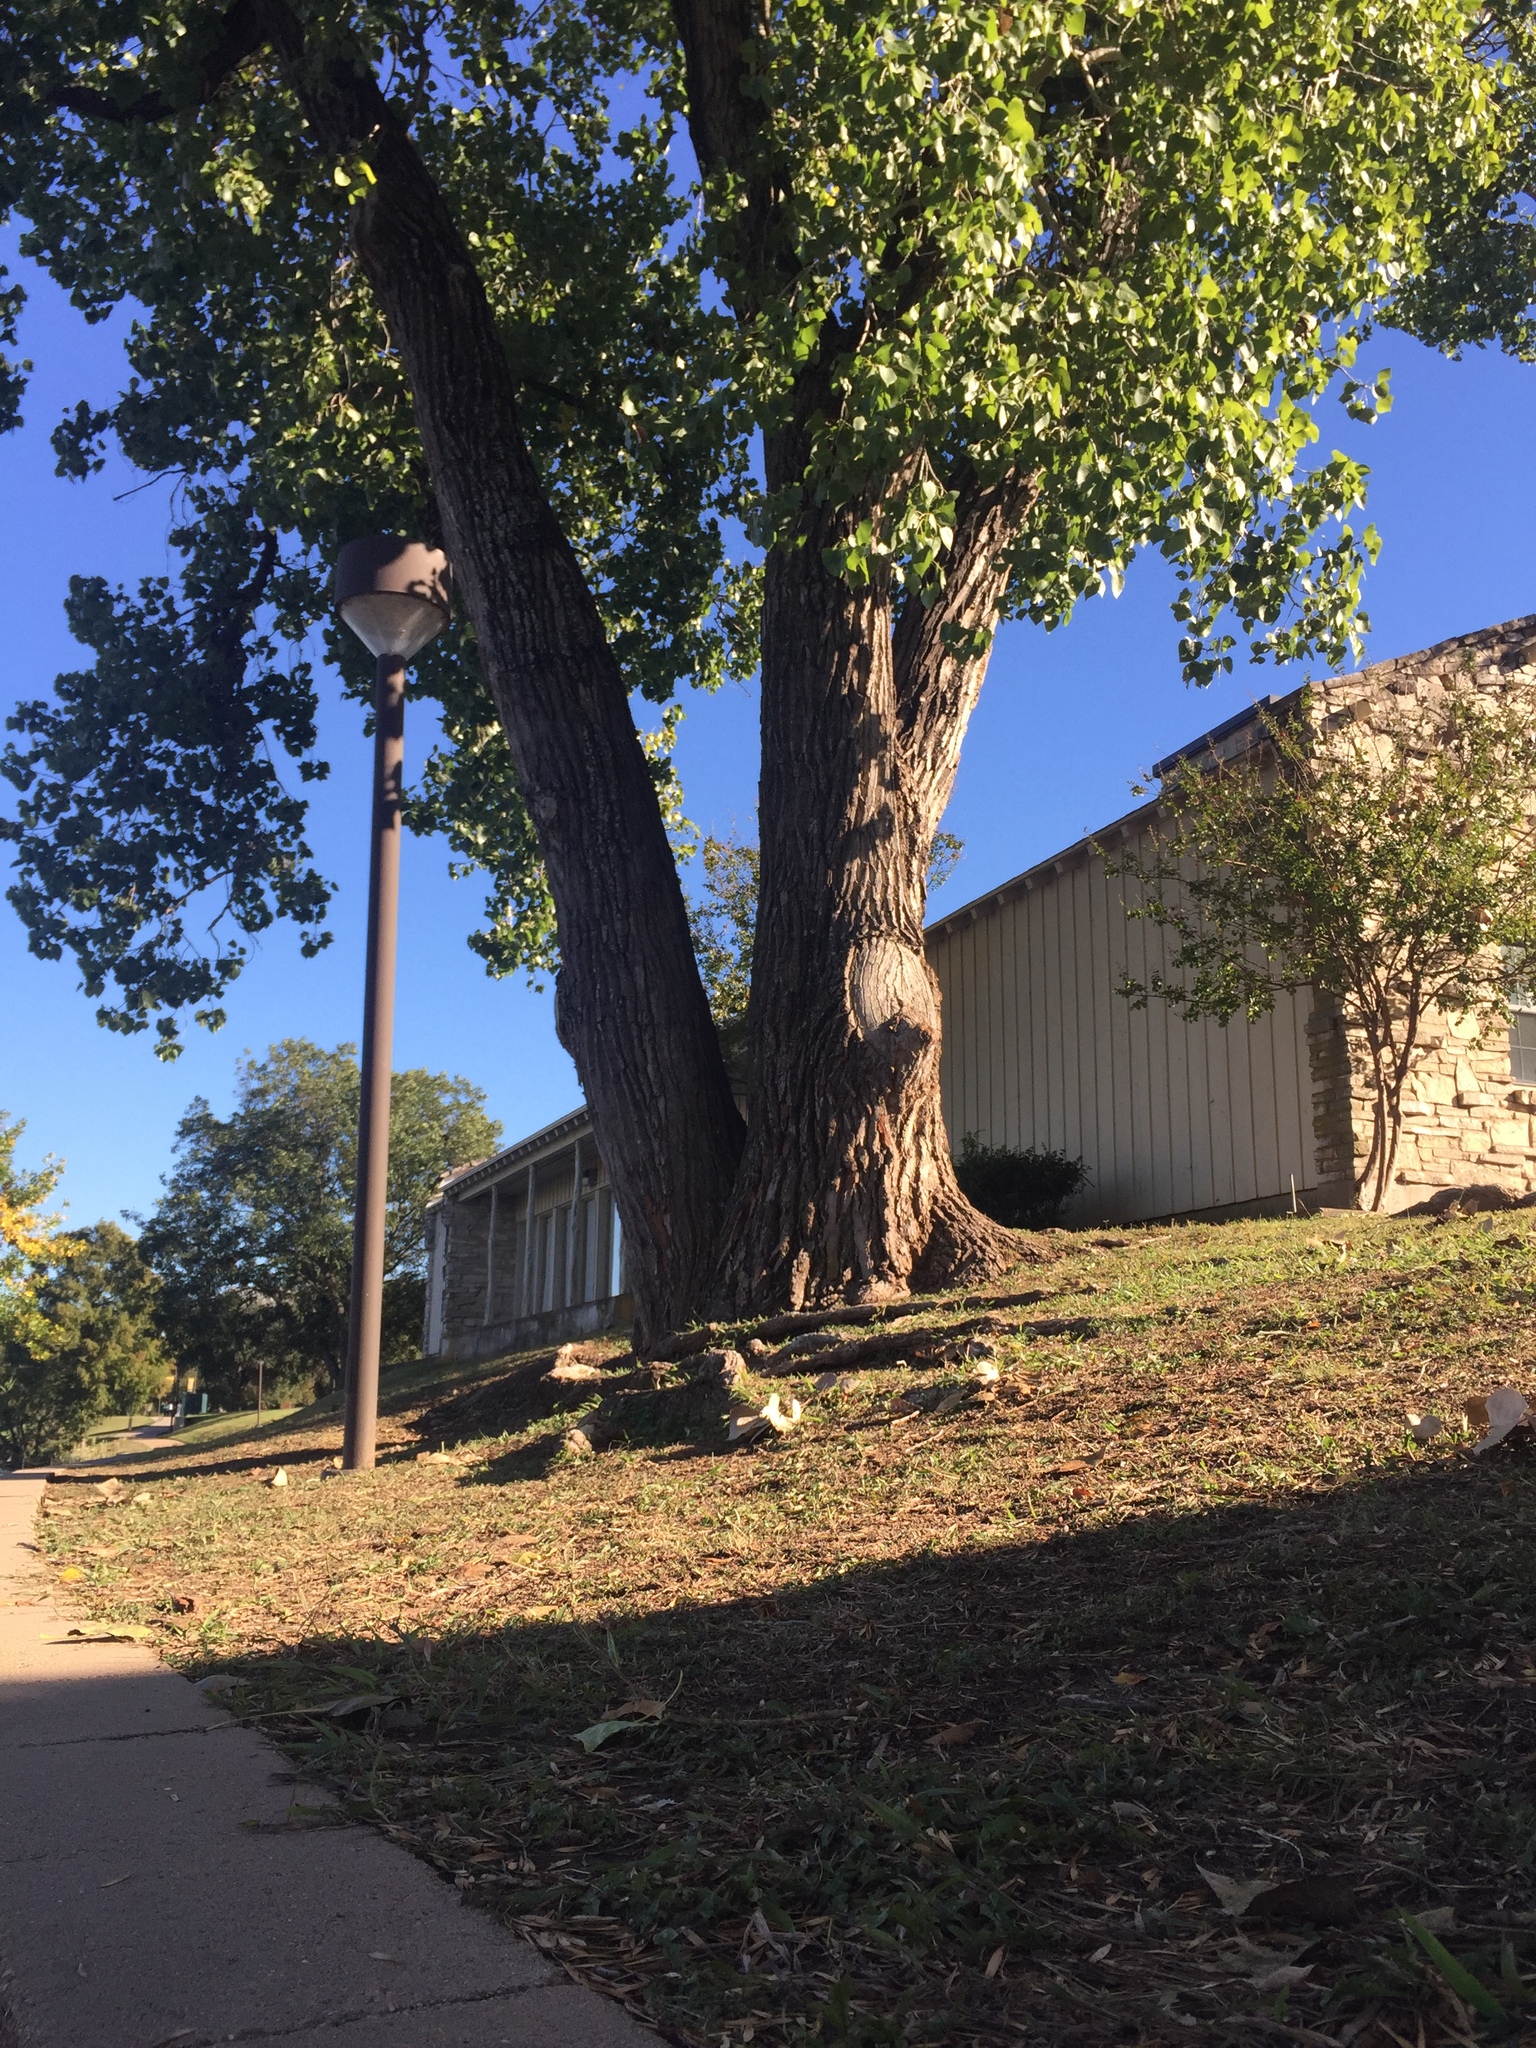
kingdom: Plantae
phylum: Tracheophyta
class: Magnoliopsida
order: Malpighiales
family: Salicaceae
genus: Populus
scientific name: Populus deltoides
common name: Eastern cottonwood
